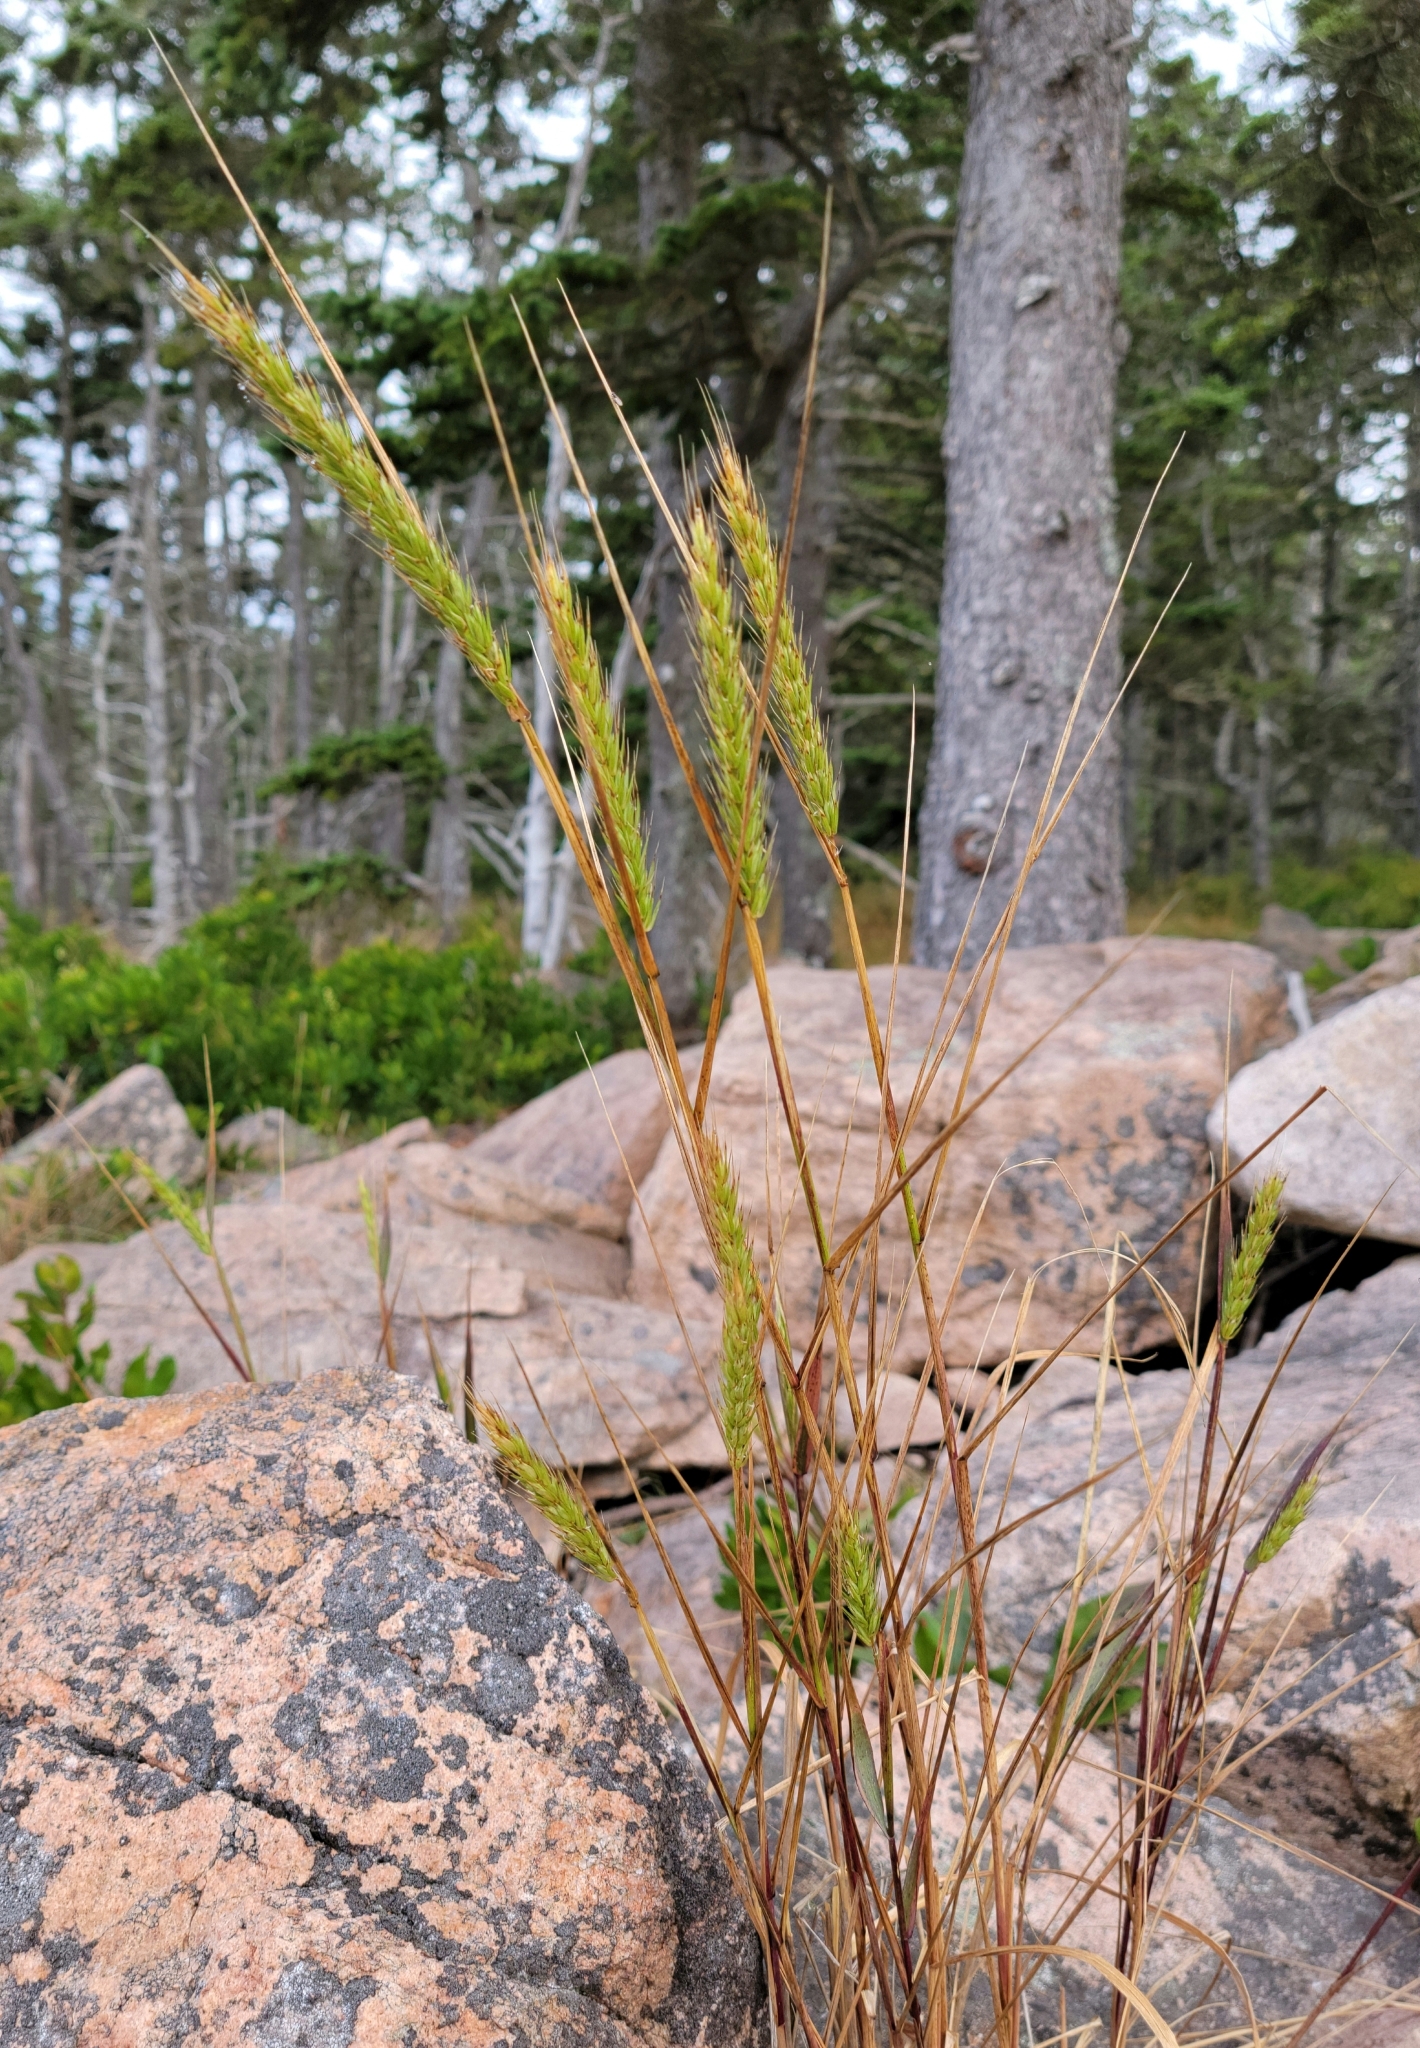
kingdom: Plantae
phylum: Tracheophyta
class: Liliopsida
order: Poales
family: Poaceae
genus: Elymus
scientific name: Elymus virginicus
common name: Common eastern wildrye
